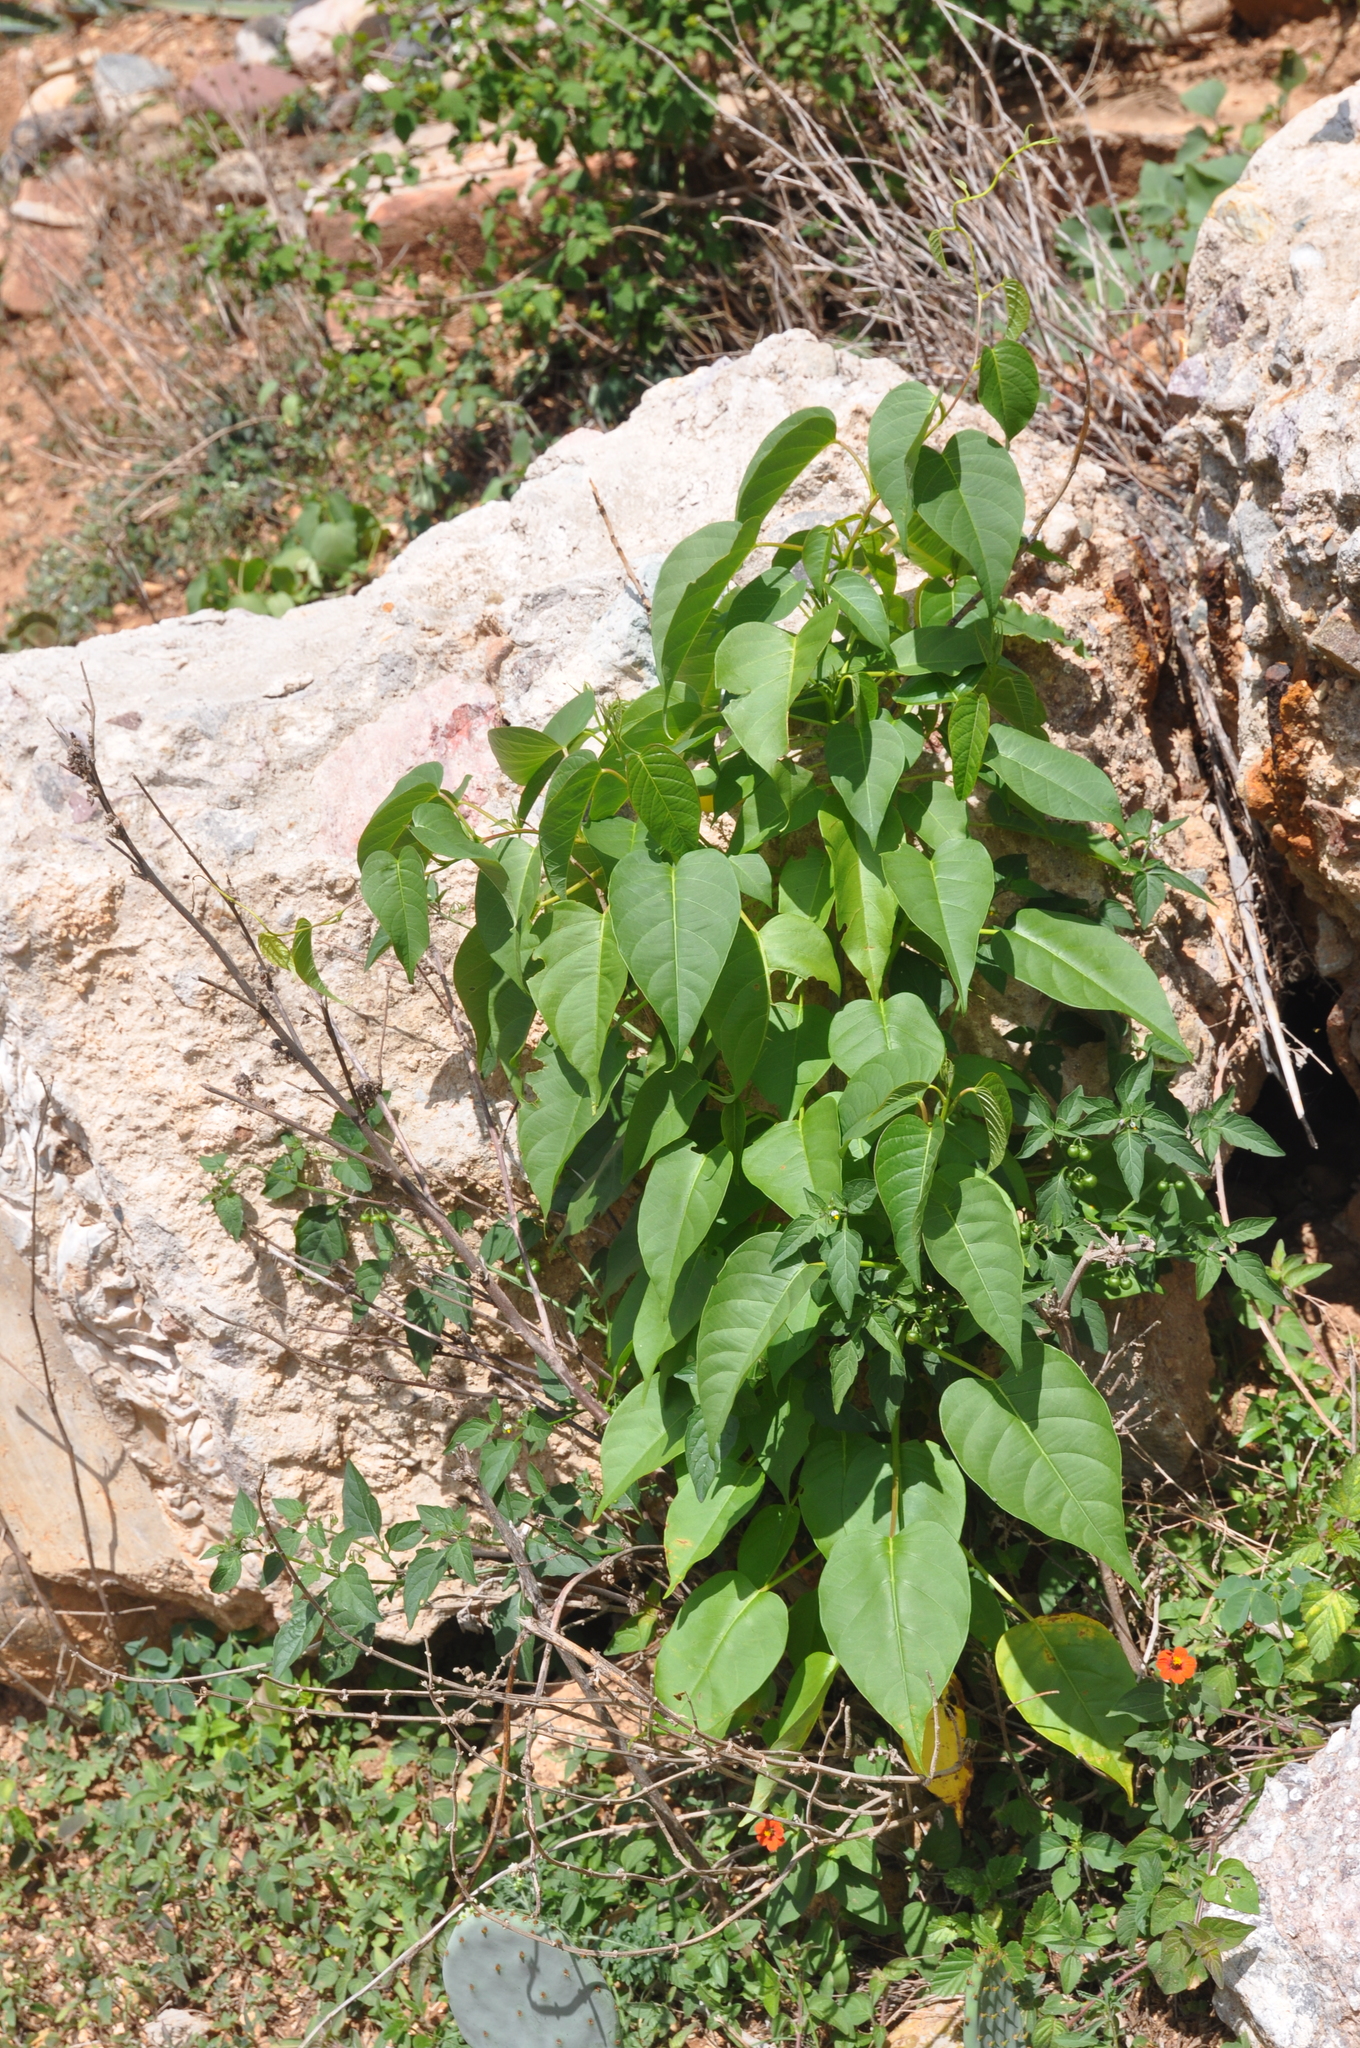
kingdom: Plantae
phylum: Tracheophyta
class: Magnoliopsida
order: Solanales
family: Convolvulaceae
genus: Ipomoea
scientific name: Ipomoea pauciflora
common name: Tree morningglory
